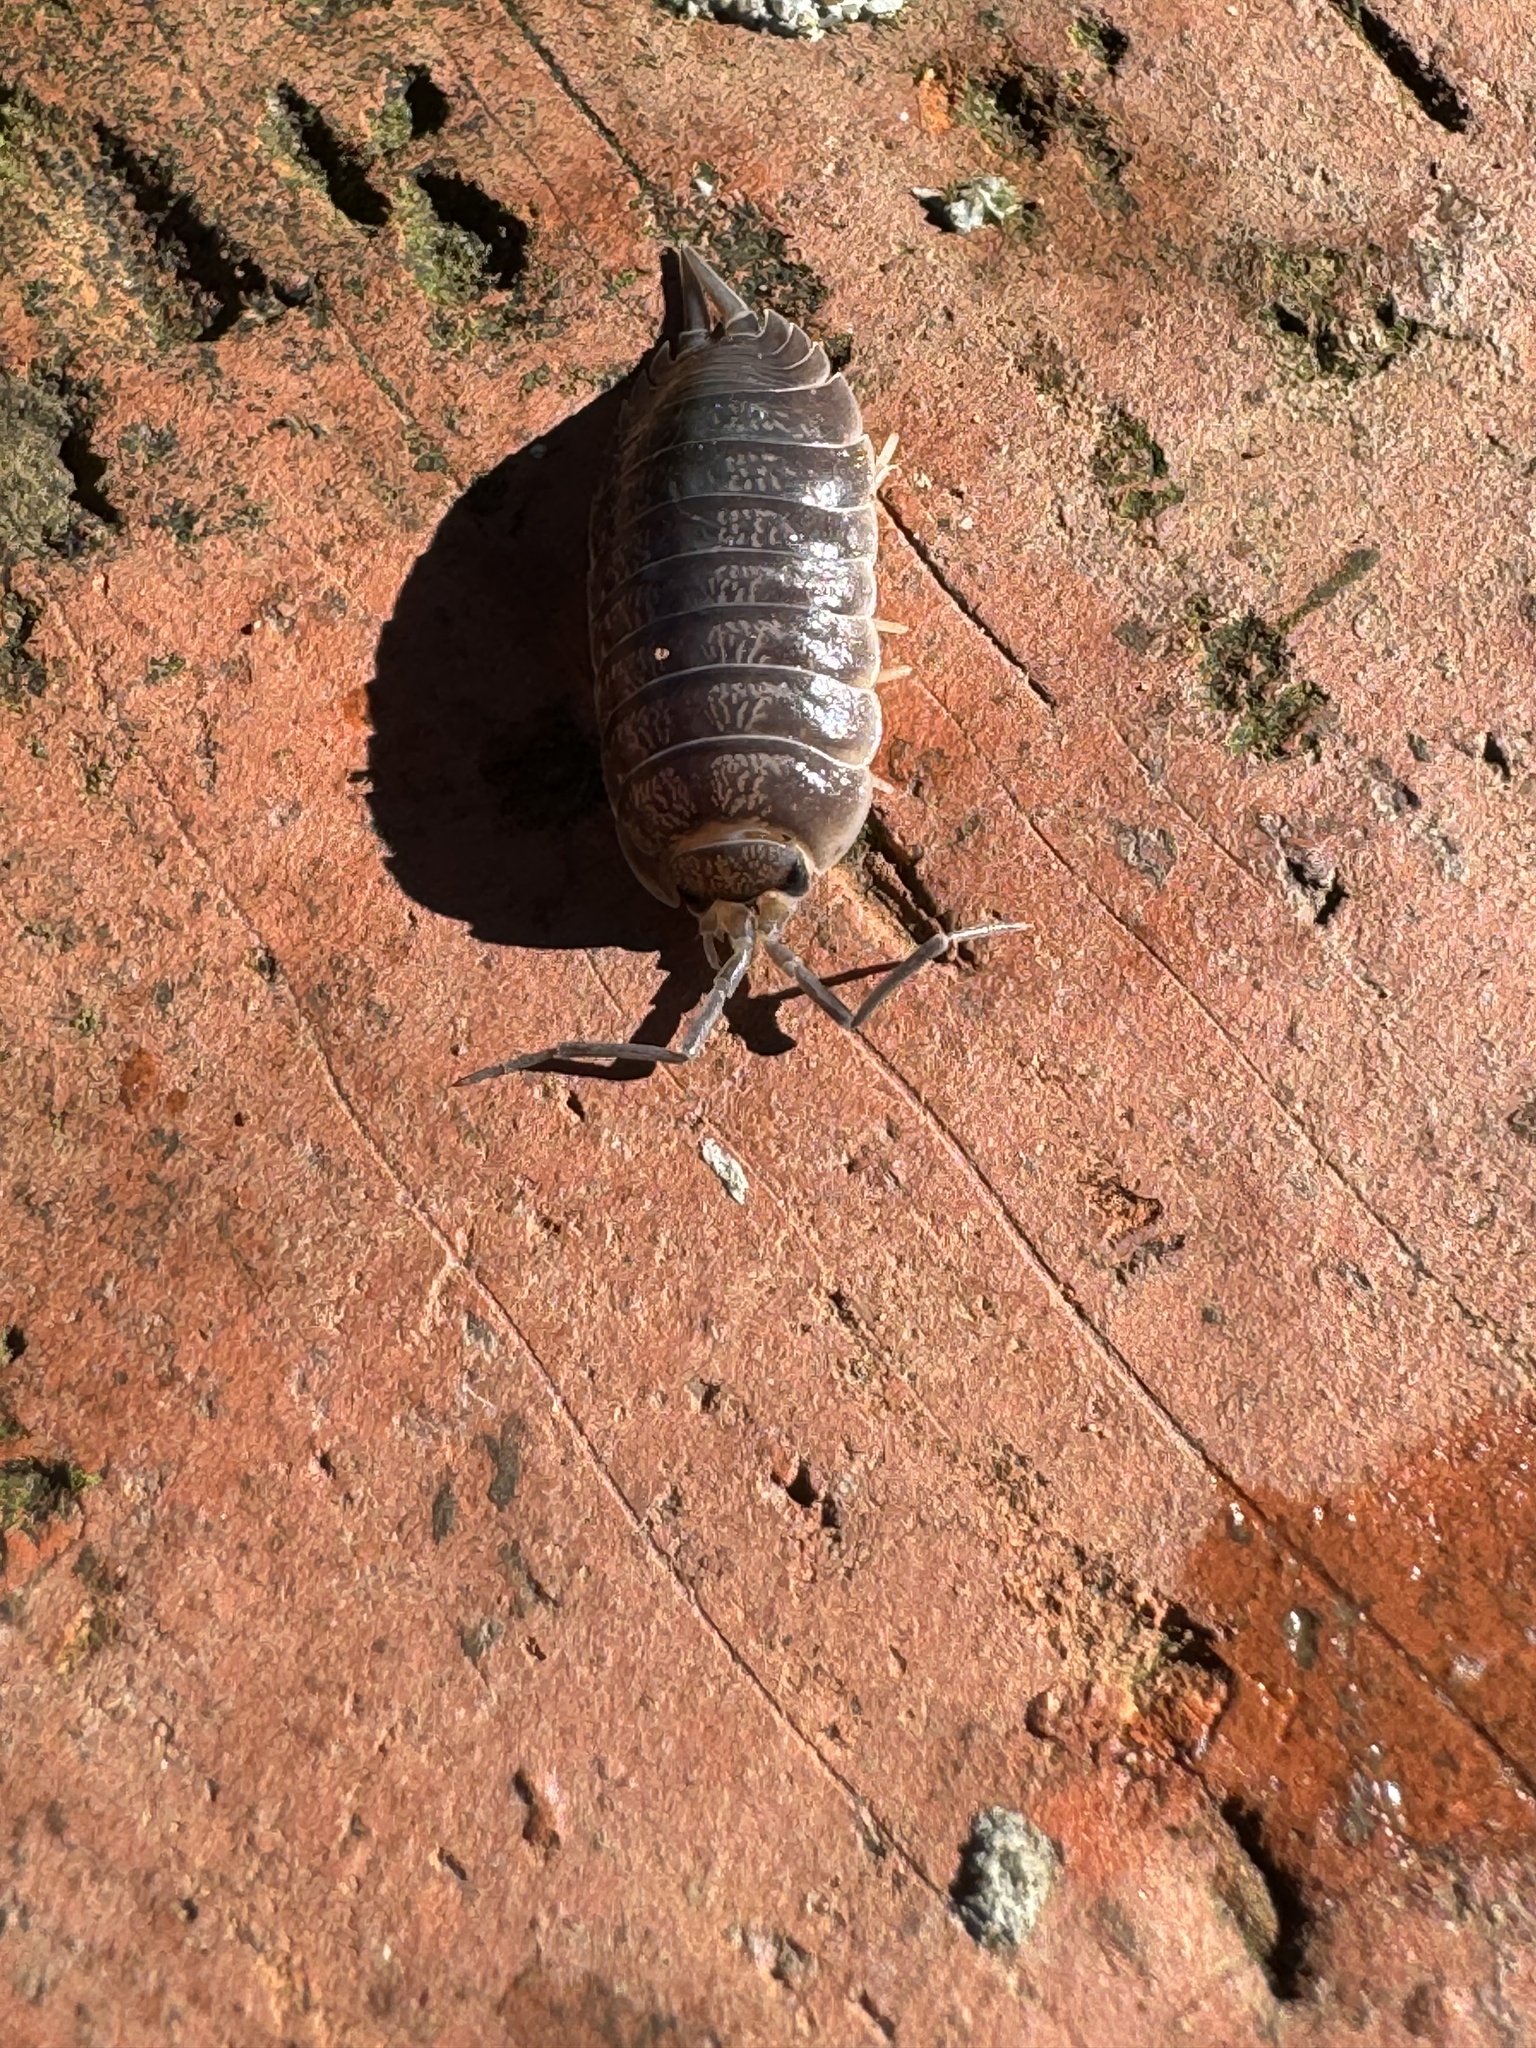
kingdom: Animalia
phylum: Arthropoda
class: Malacostraca
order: Isopoda
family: Porcellionidae
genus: Porcellio
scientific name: Porcellio laevis
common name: Swift woodlouse
